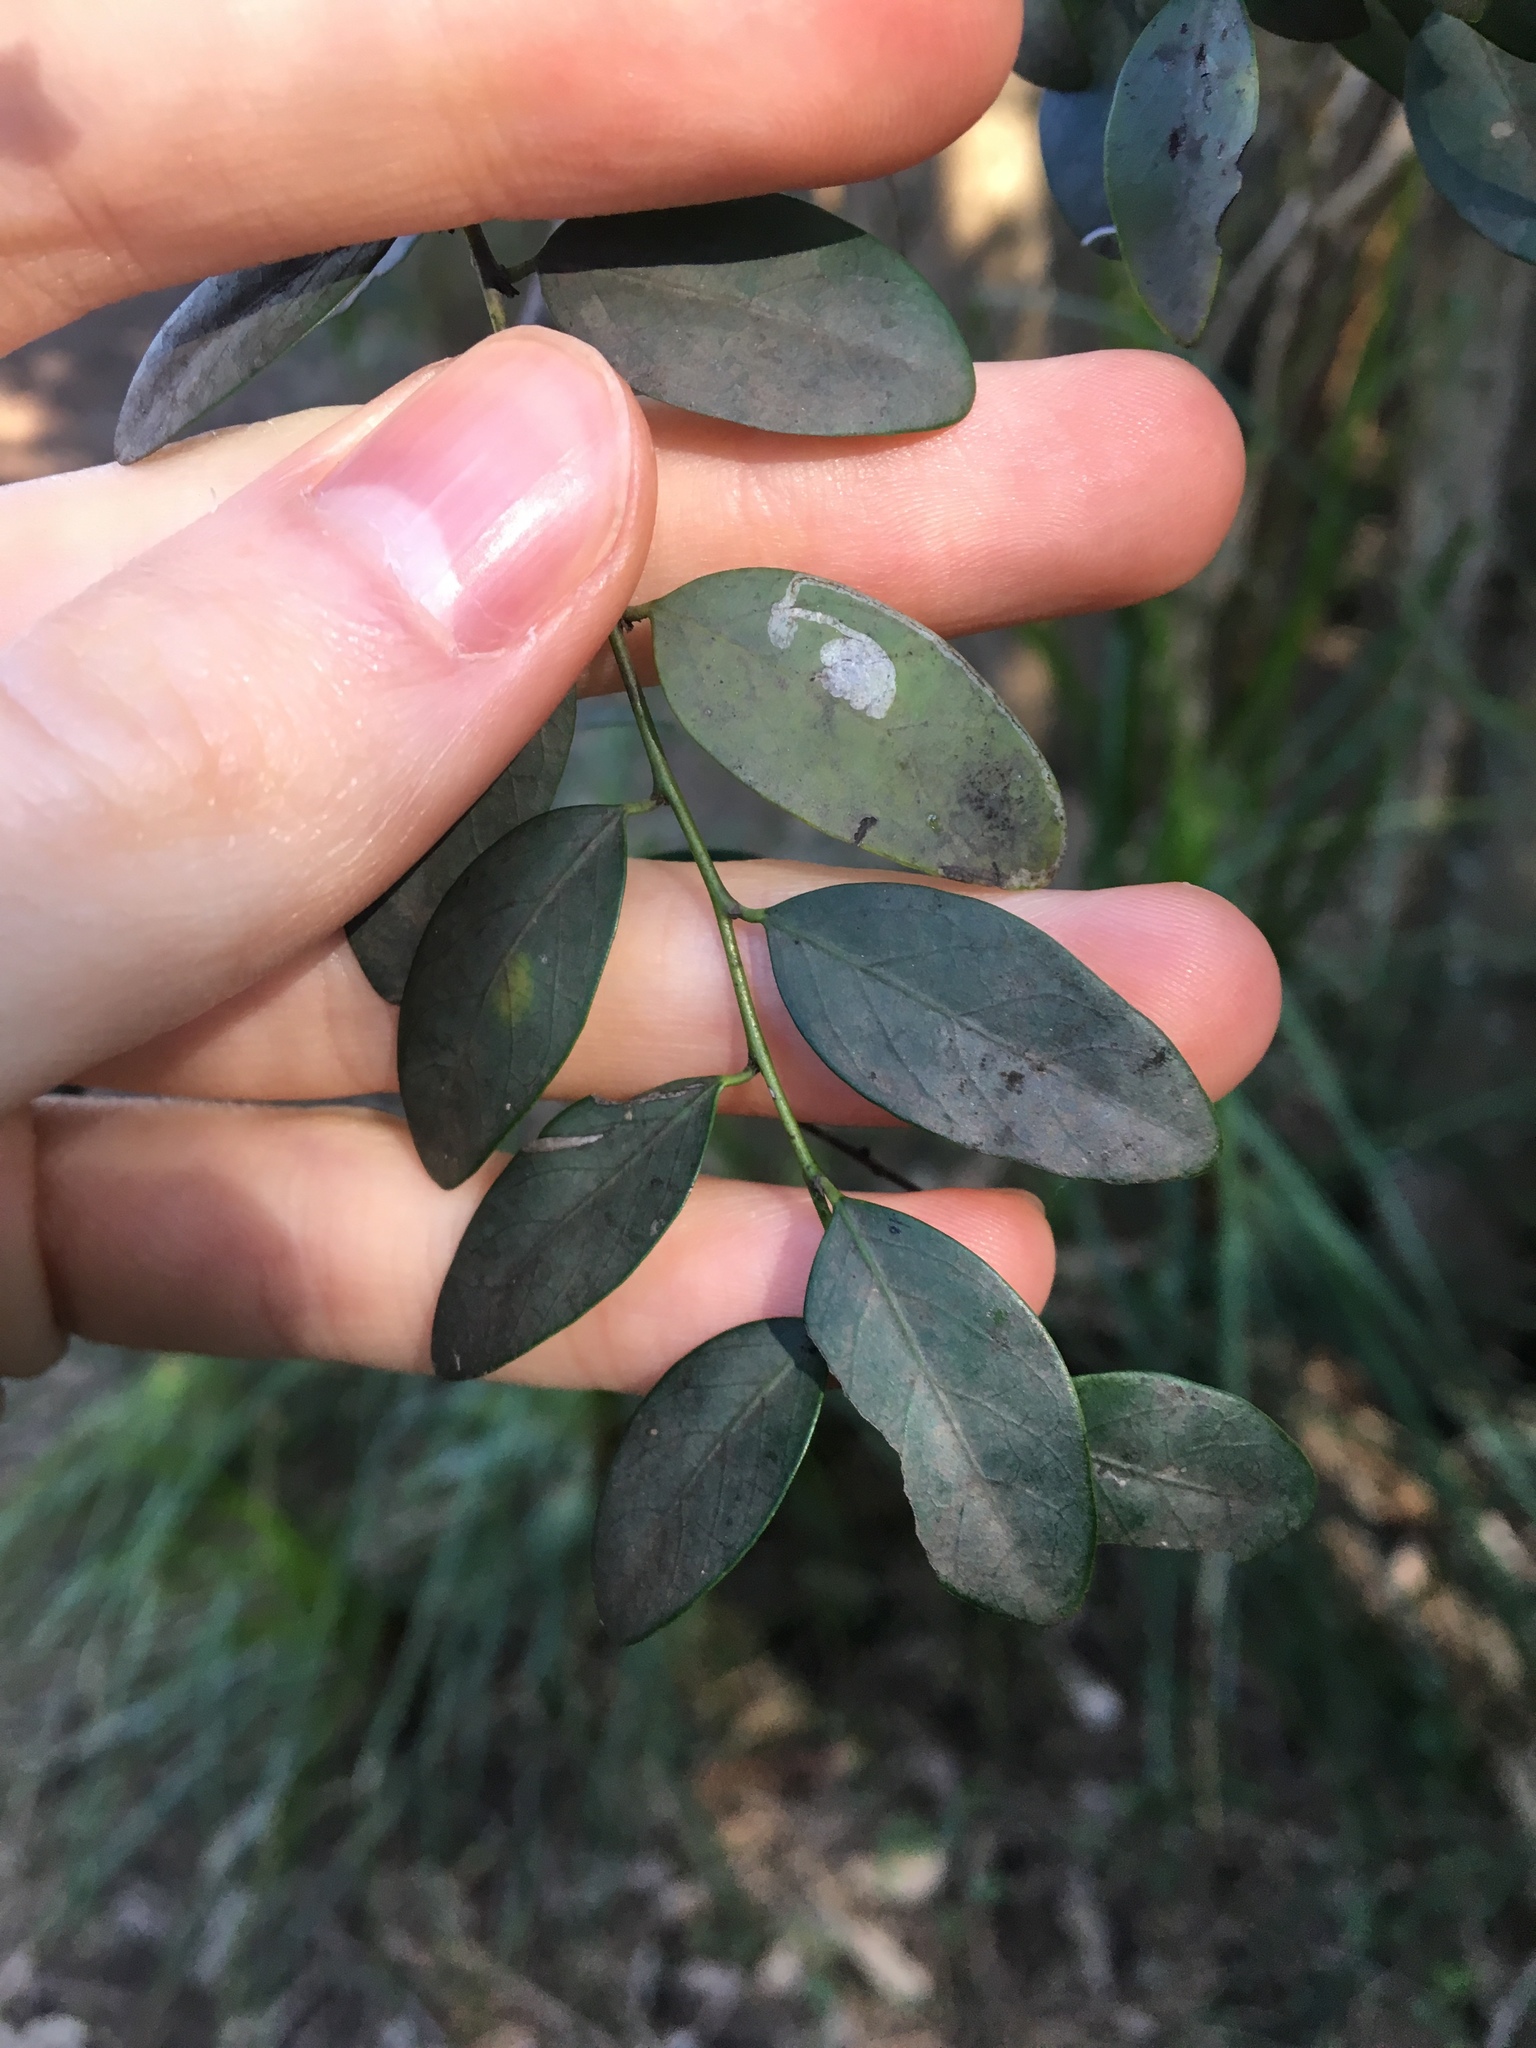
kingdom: Plantae
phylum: Tracheophyta
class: Magnoliopsida
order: Malpighiales
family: Phyllanthaceae
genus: Breynia
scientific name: Breynia oblongifolia
